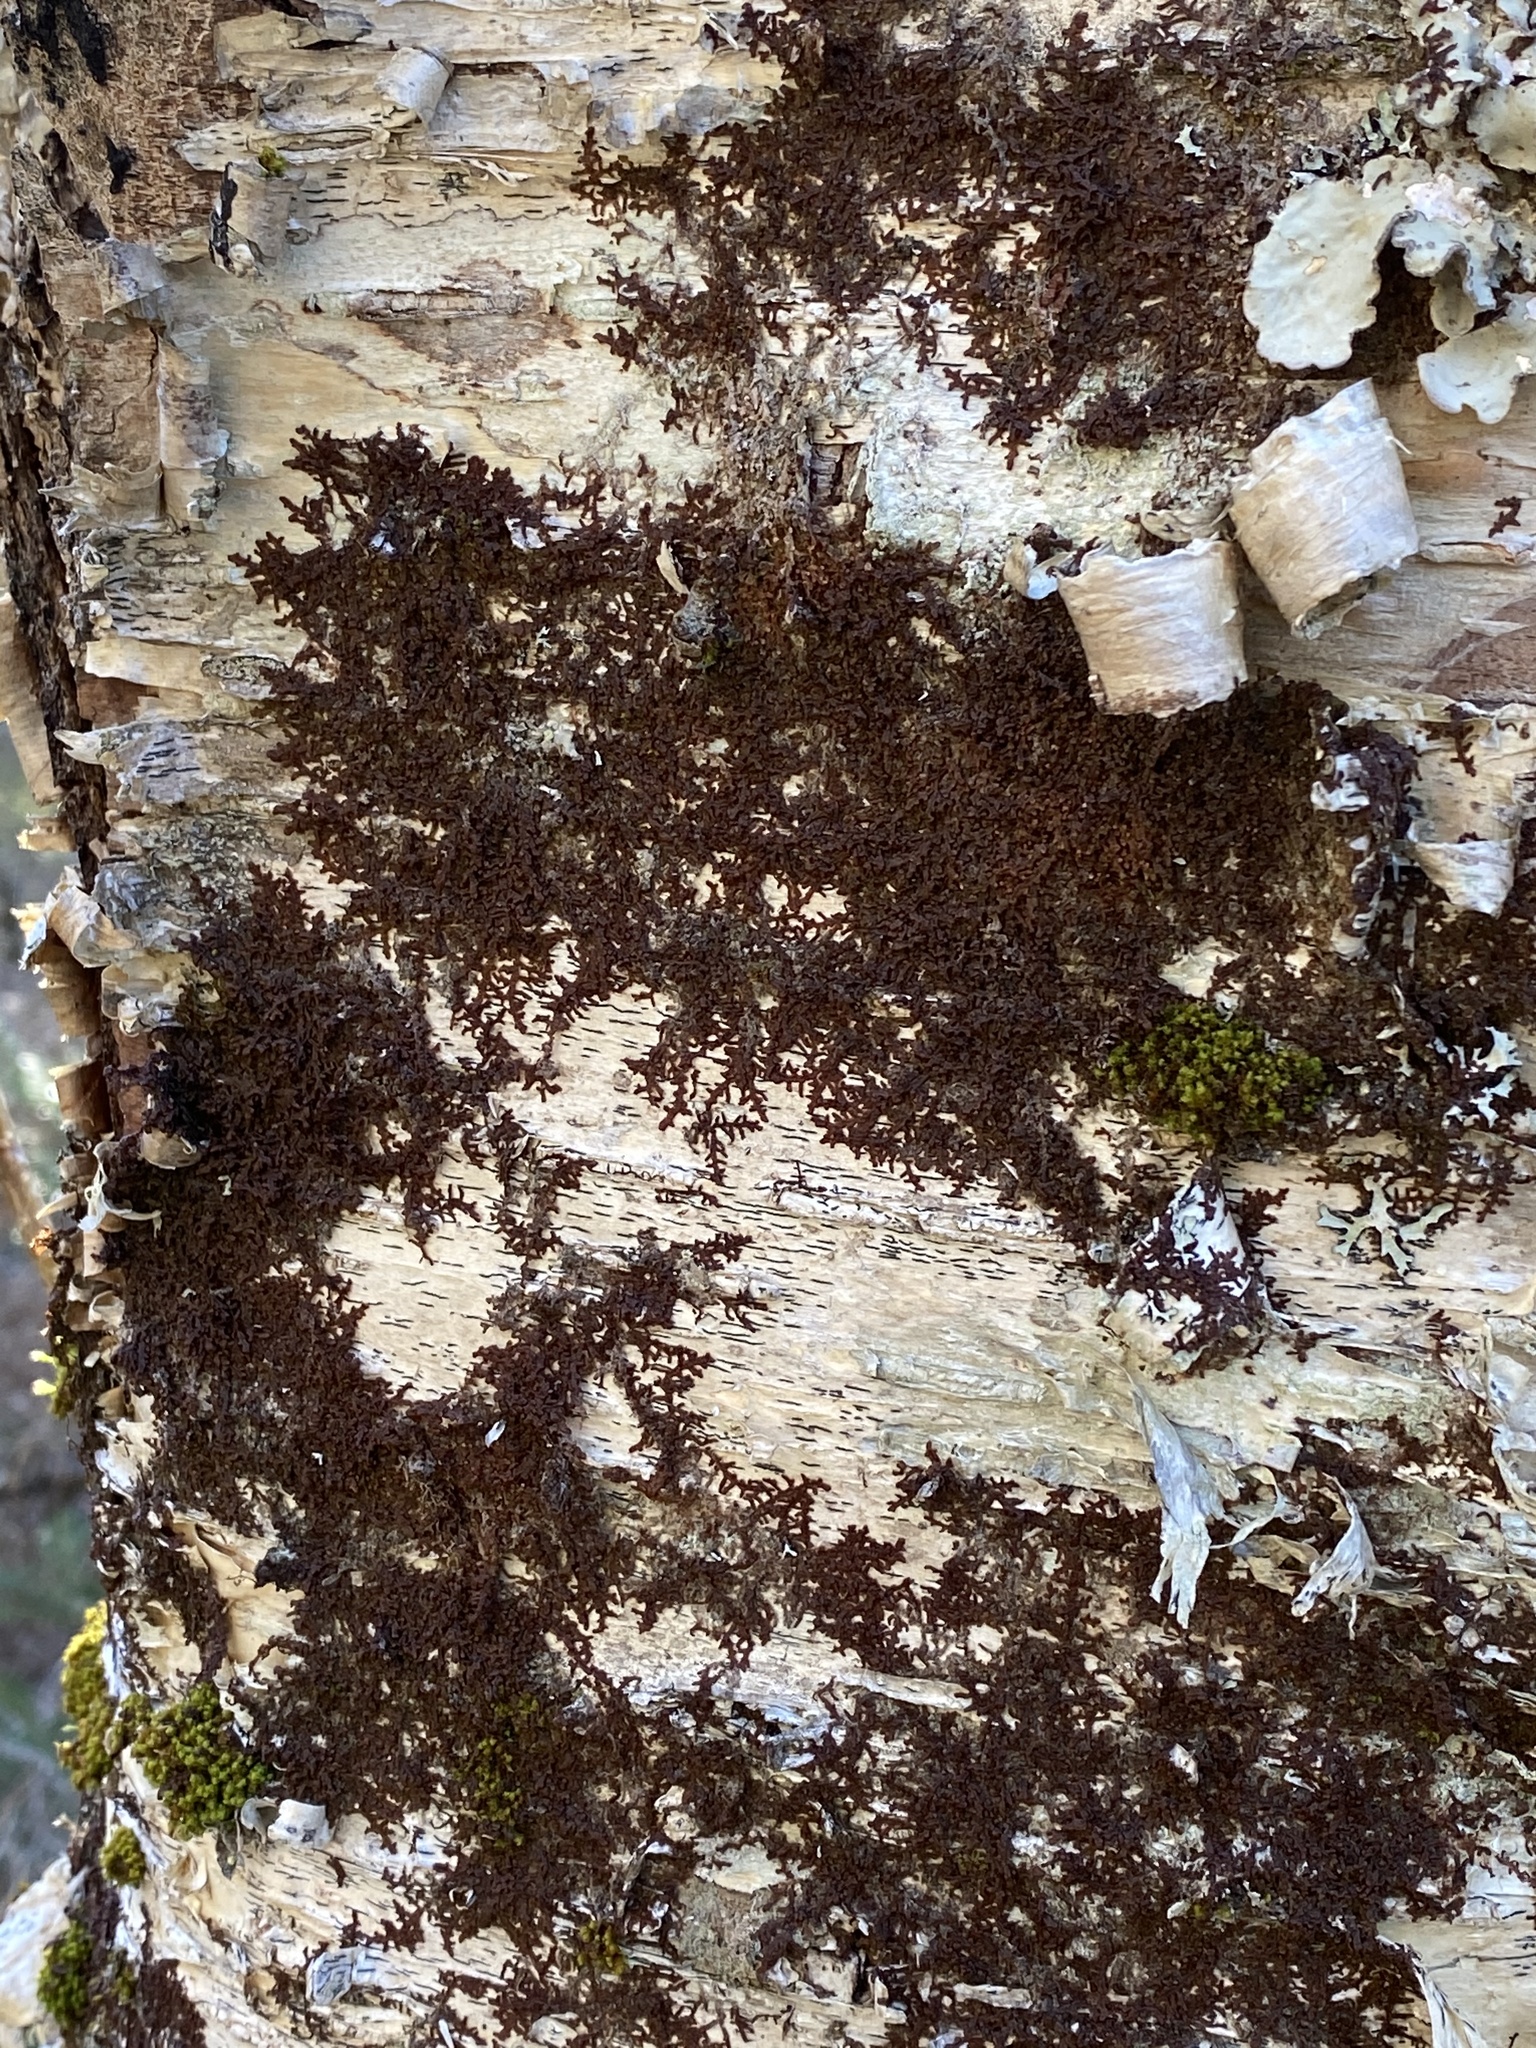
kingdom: Plantae
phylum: Marchantiophyta
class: Jungermanniopsida
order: Porellales
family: Frullaniaceae
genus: Frullania
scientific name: Frullania asagrayana
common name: Asa gray s scalewort
